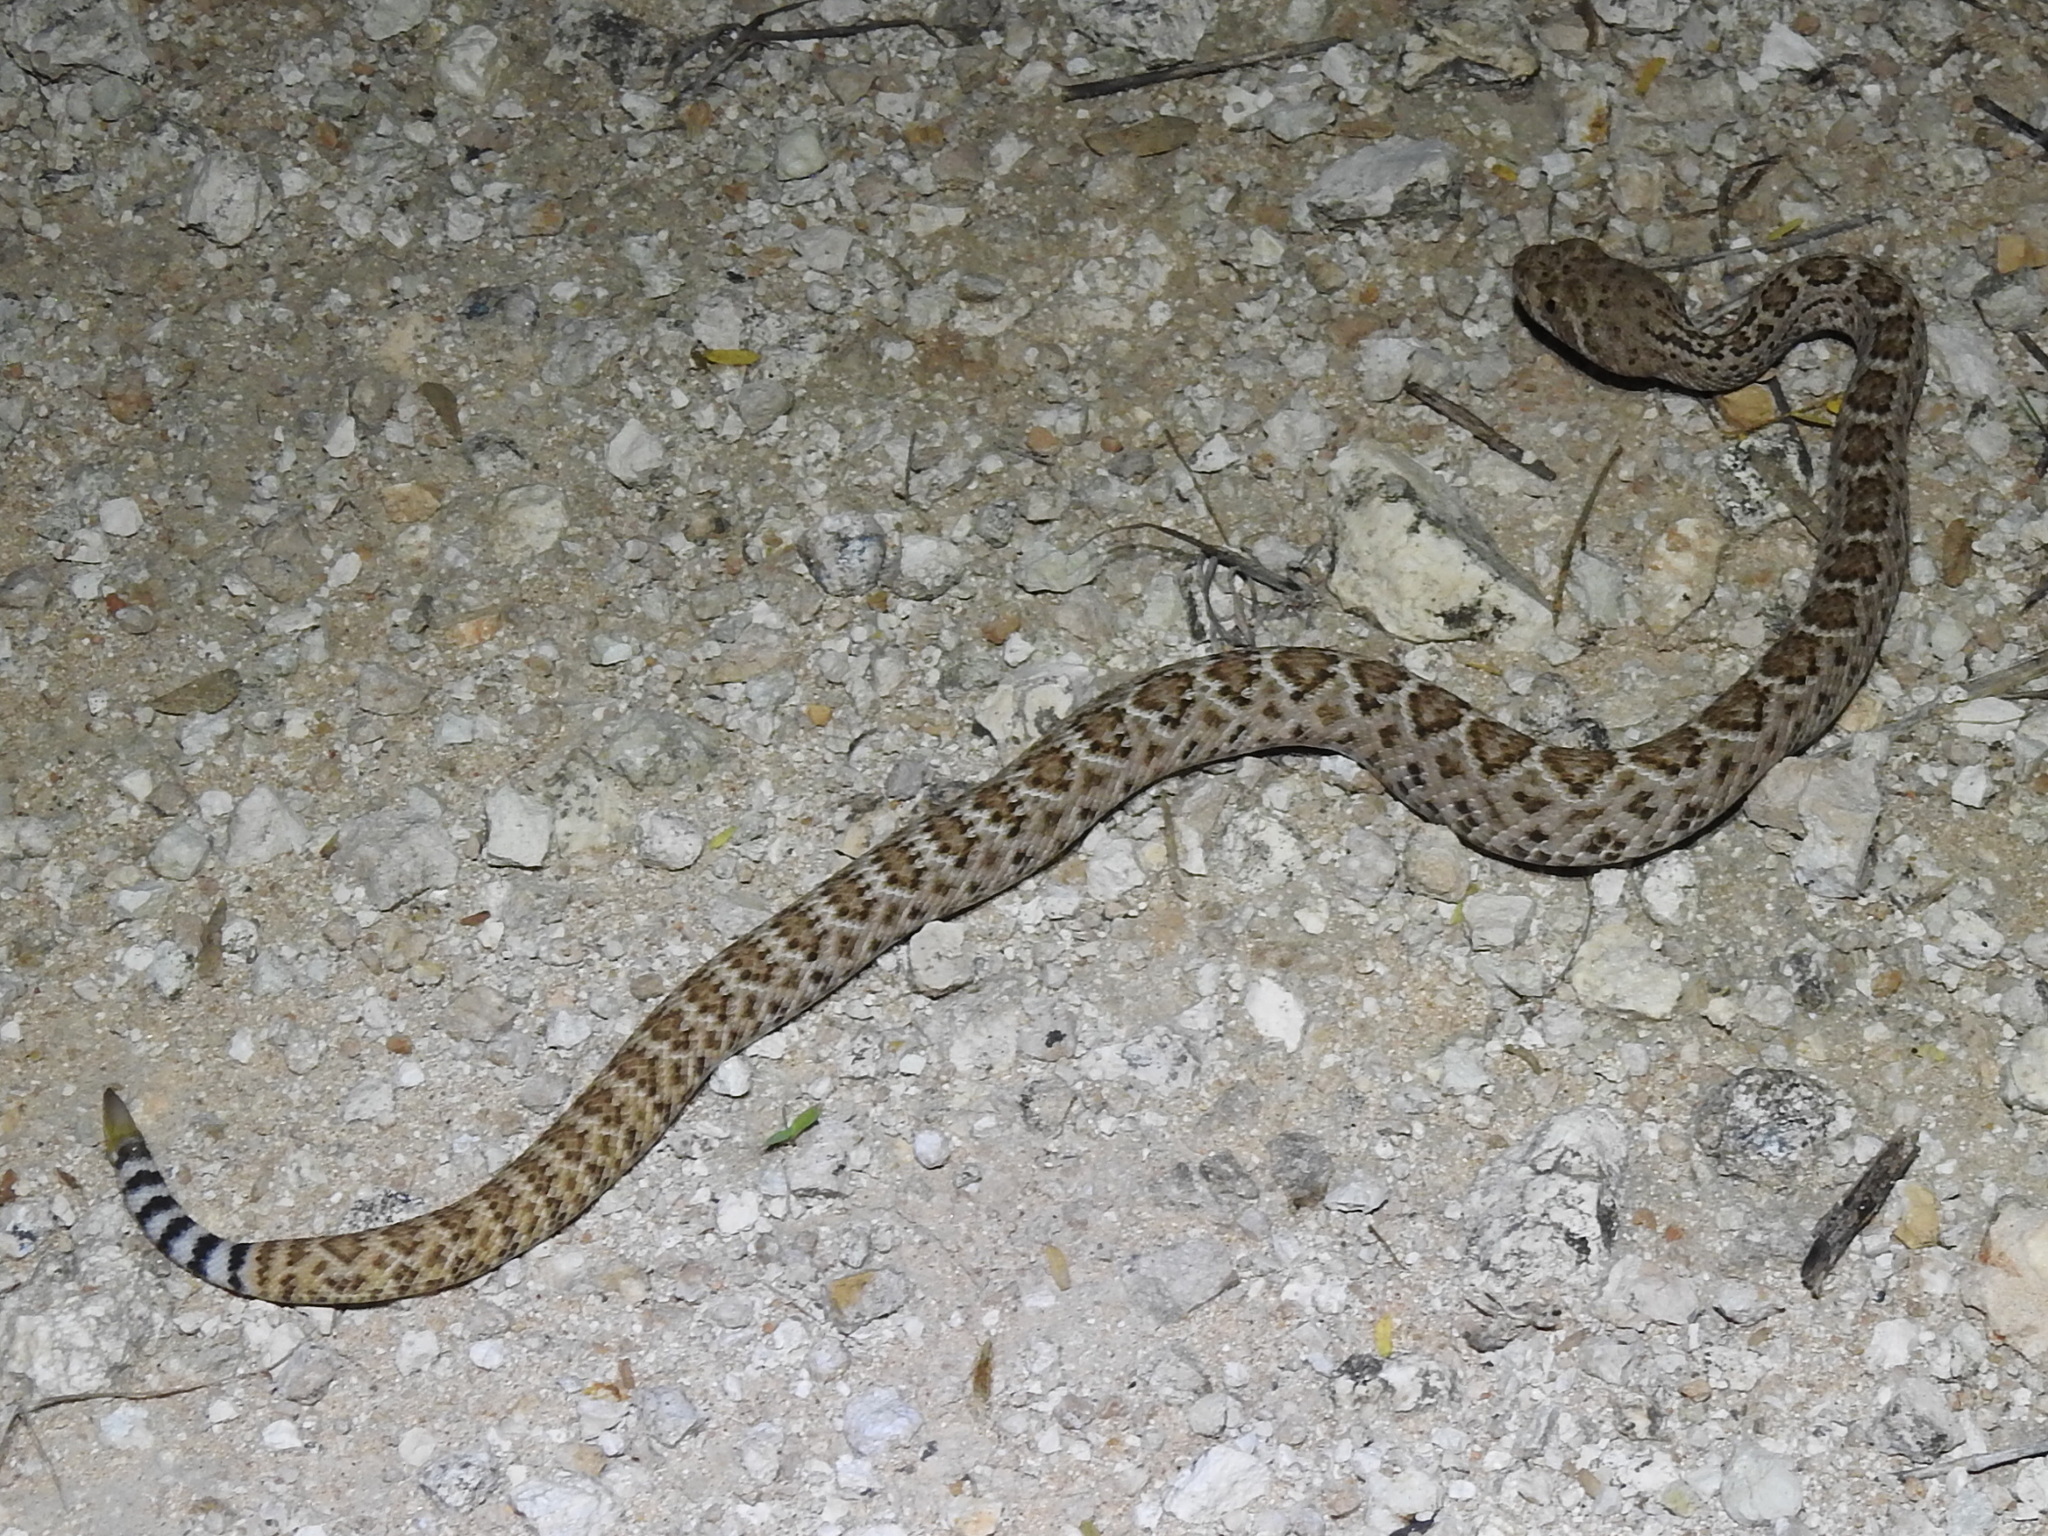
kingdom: Animalia
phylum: Chordata
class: Squamata
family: Viperidae
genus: Crotalus
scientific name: Crotalus atrox
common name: Western diamond-backed rattlesnake
